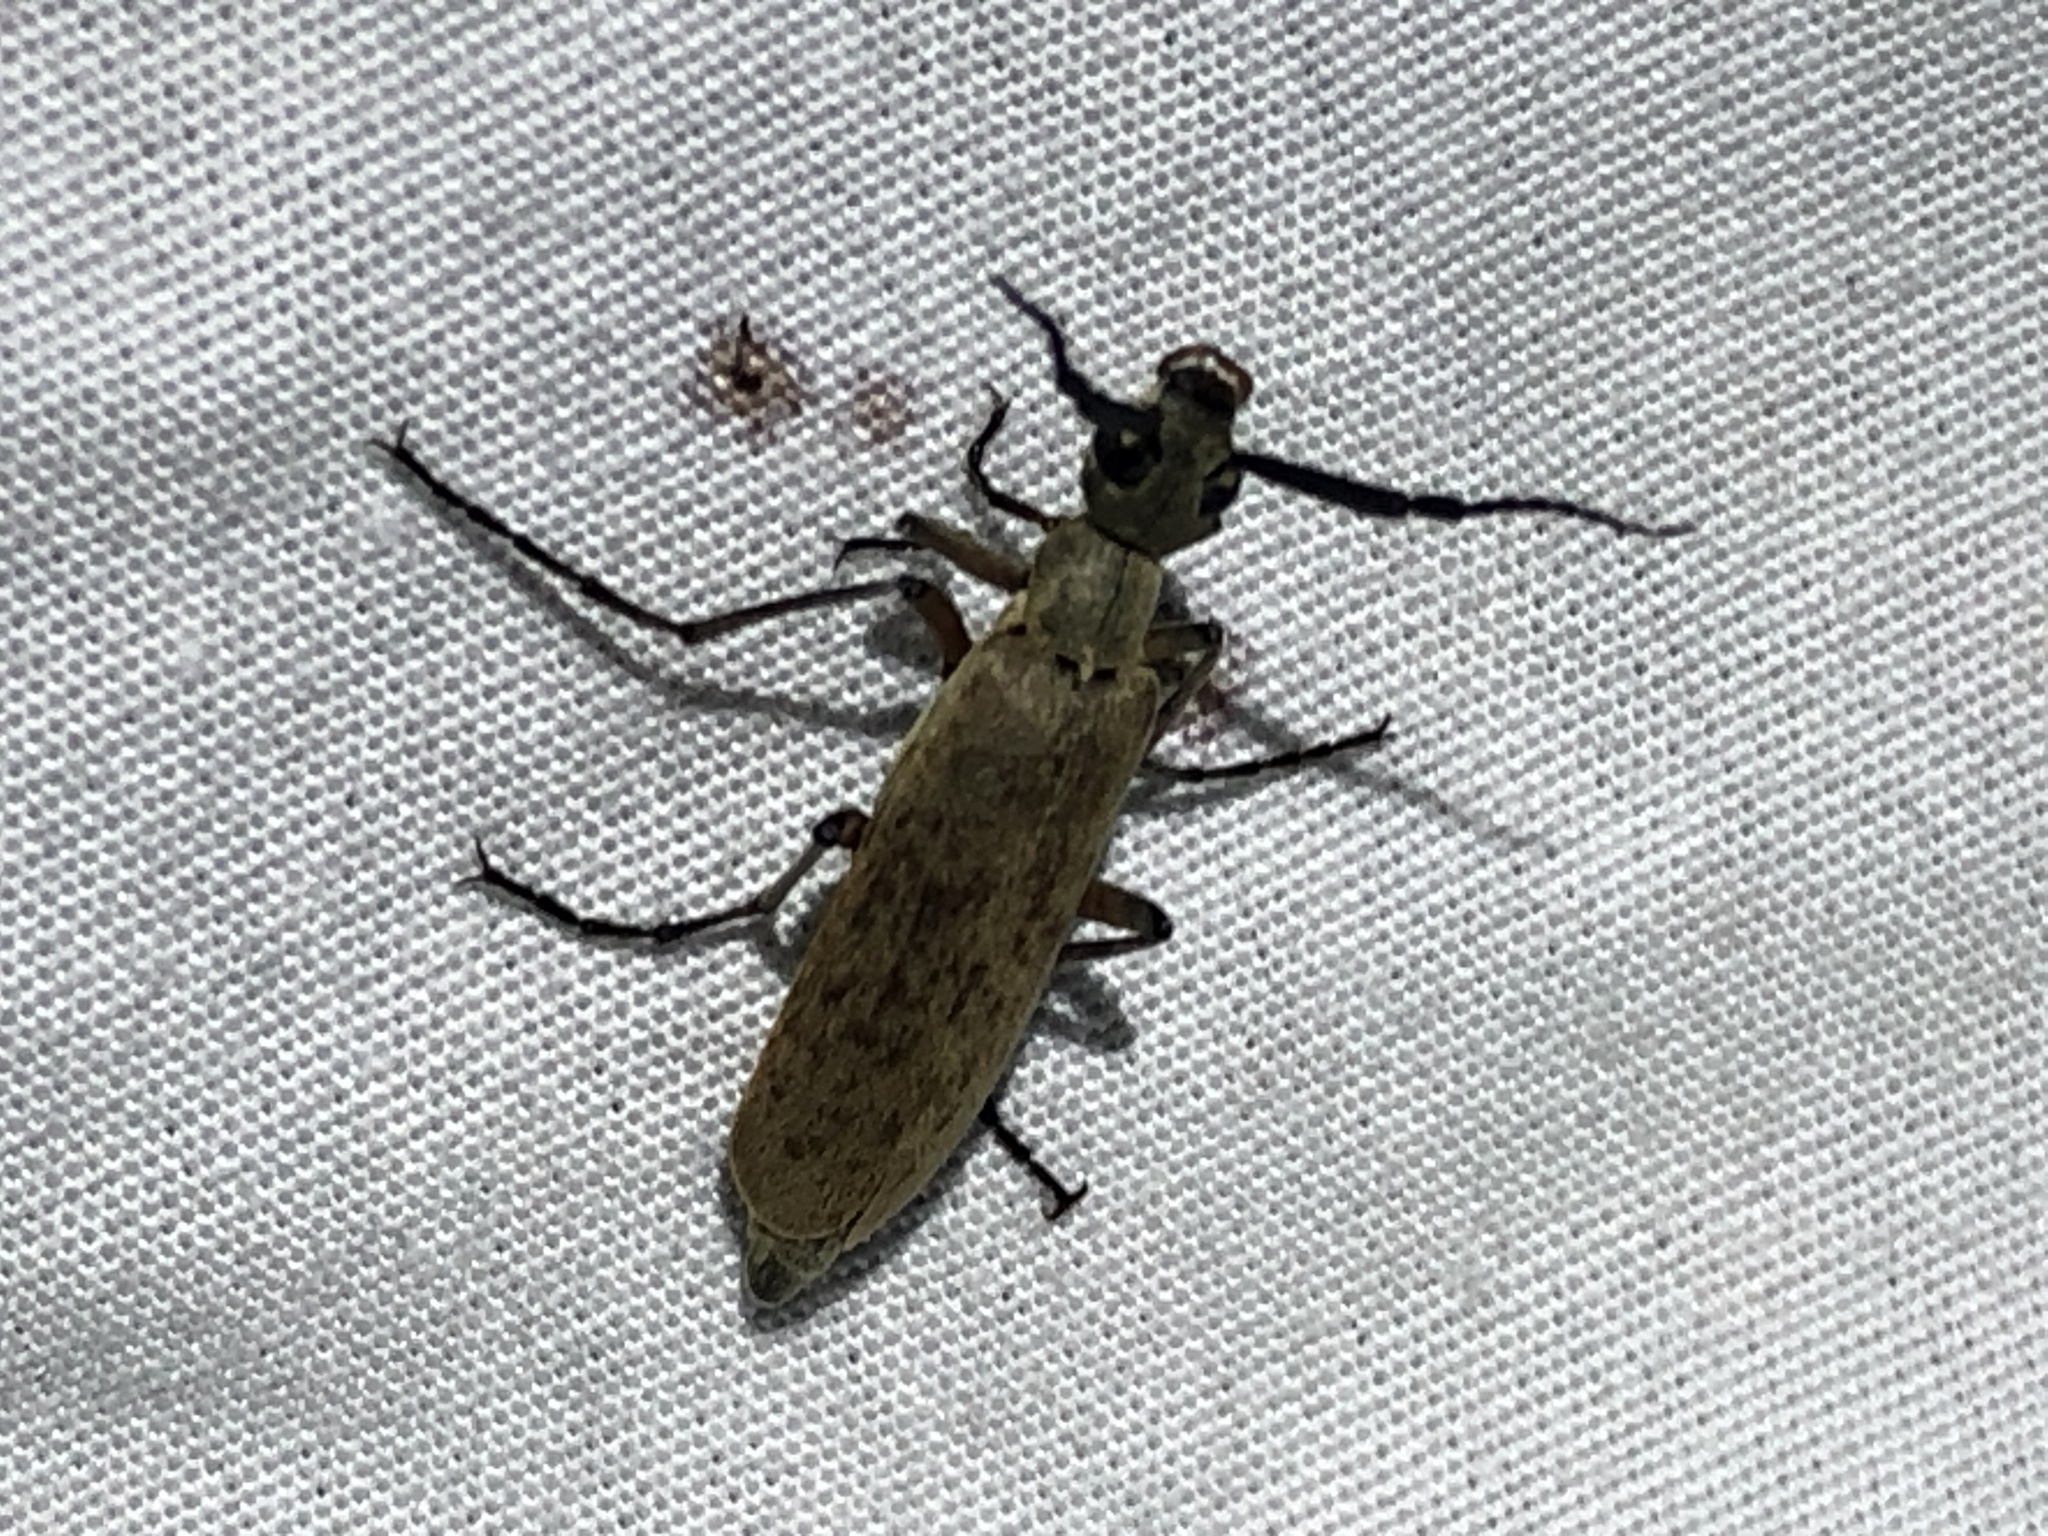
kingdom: Animalia
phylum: Arthropoda
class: Insecta
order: Coleoptera
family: Meloidae
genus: Epicauta
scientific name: Epicauta polingi
